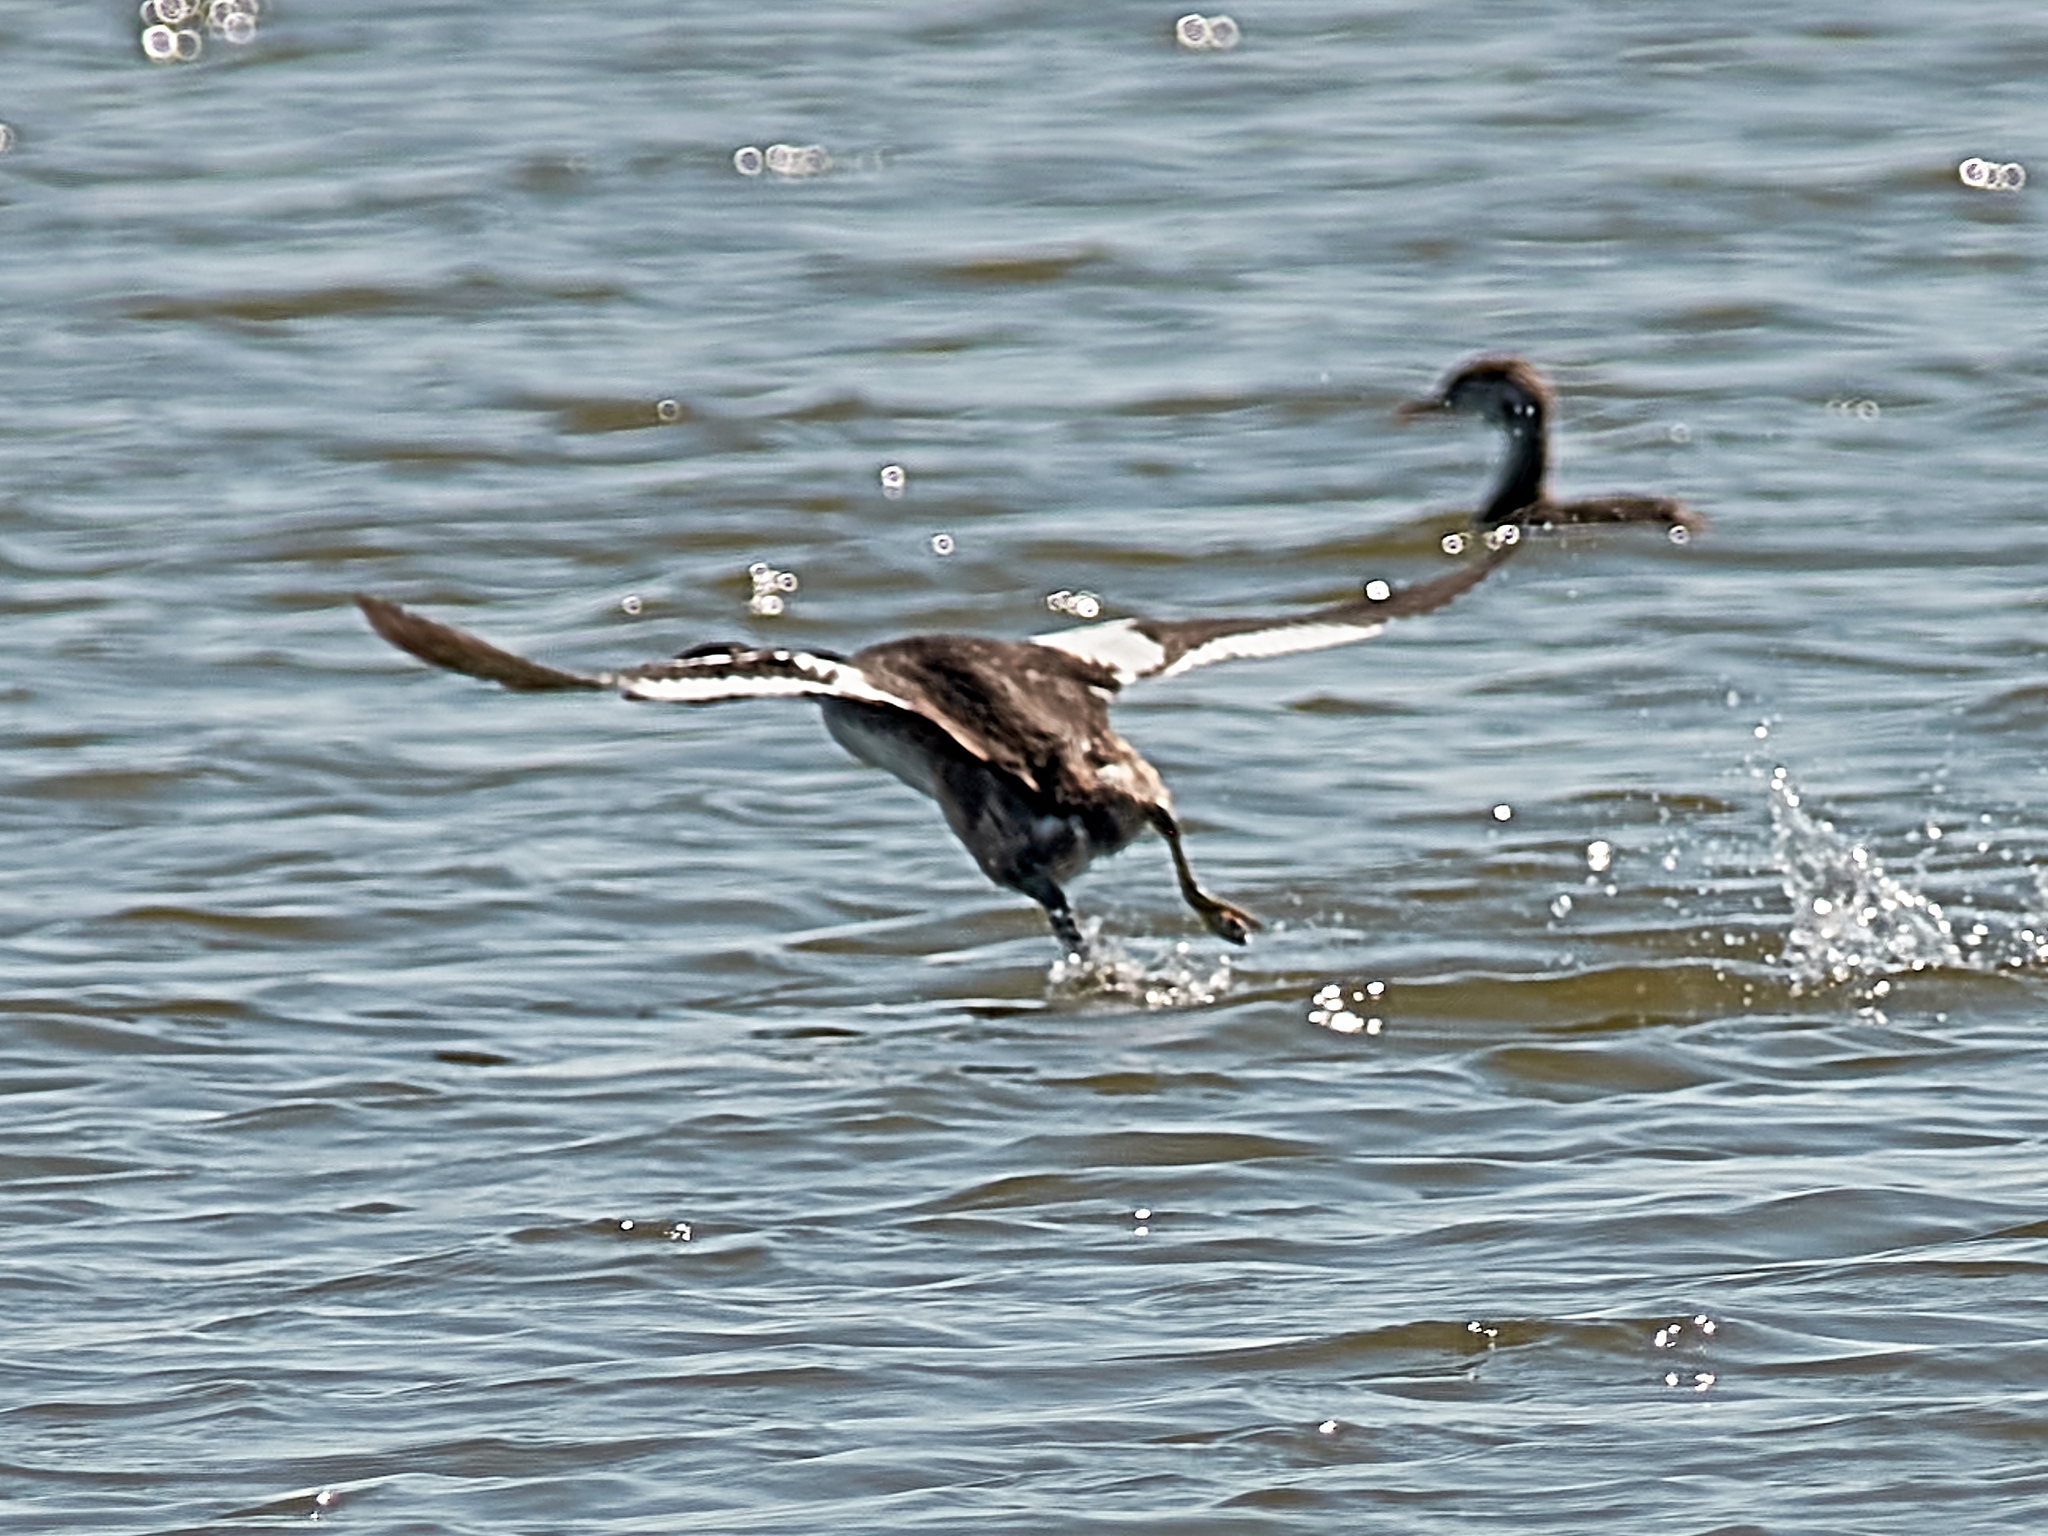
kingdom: Animalia
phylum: Chordata
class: Aves
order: Podicipediformes
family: Podicipedidae
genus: Podiceps
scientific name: Podiceps cristatus
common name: Great crested grebe
